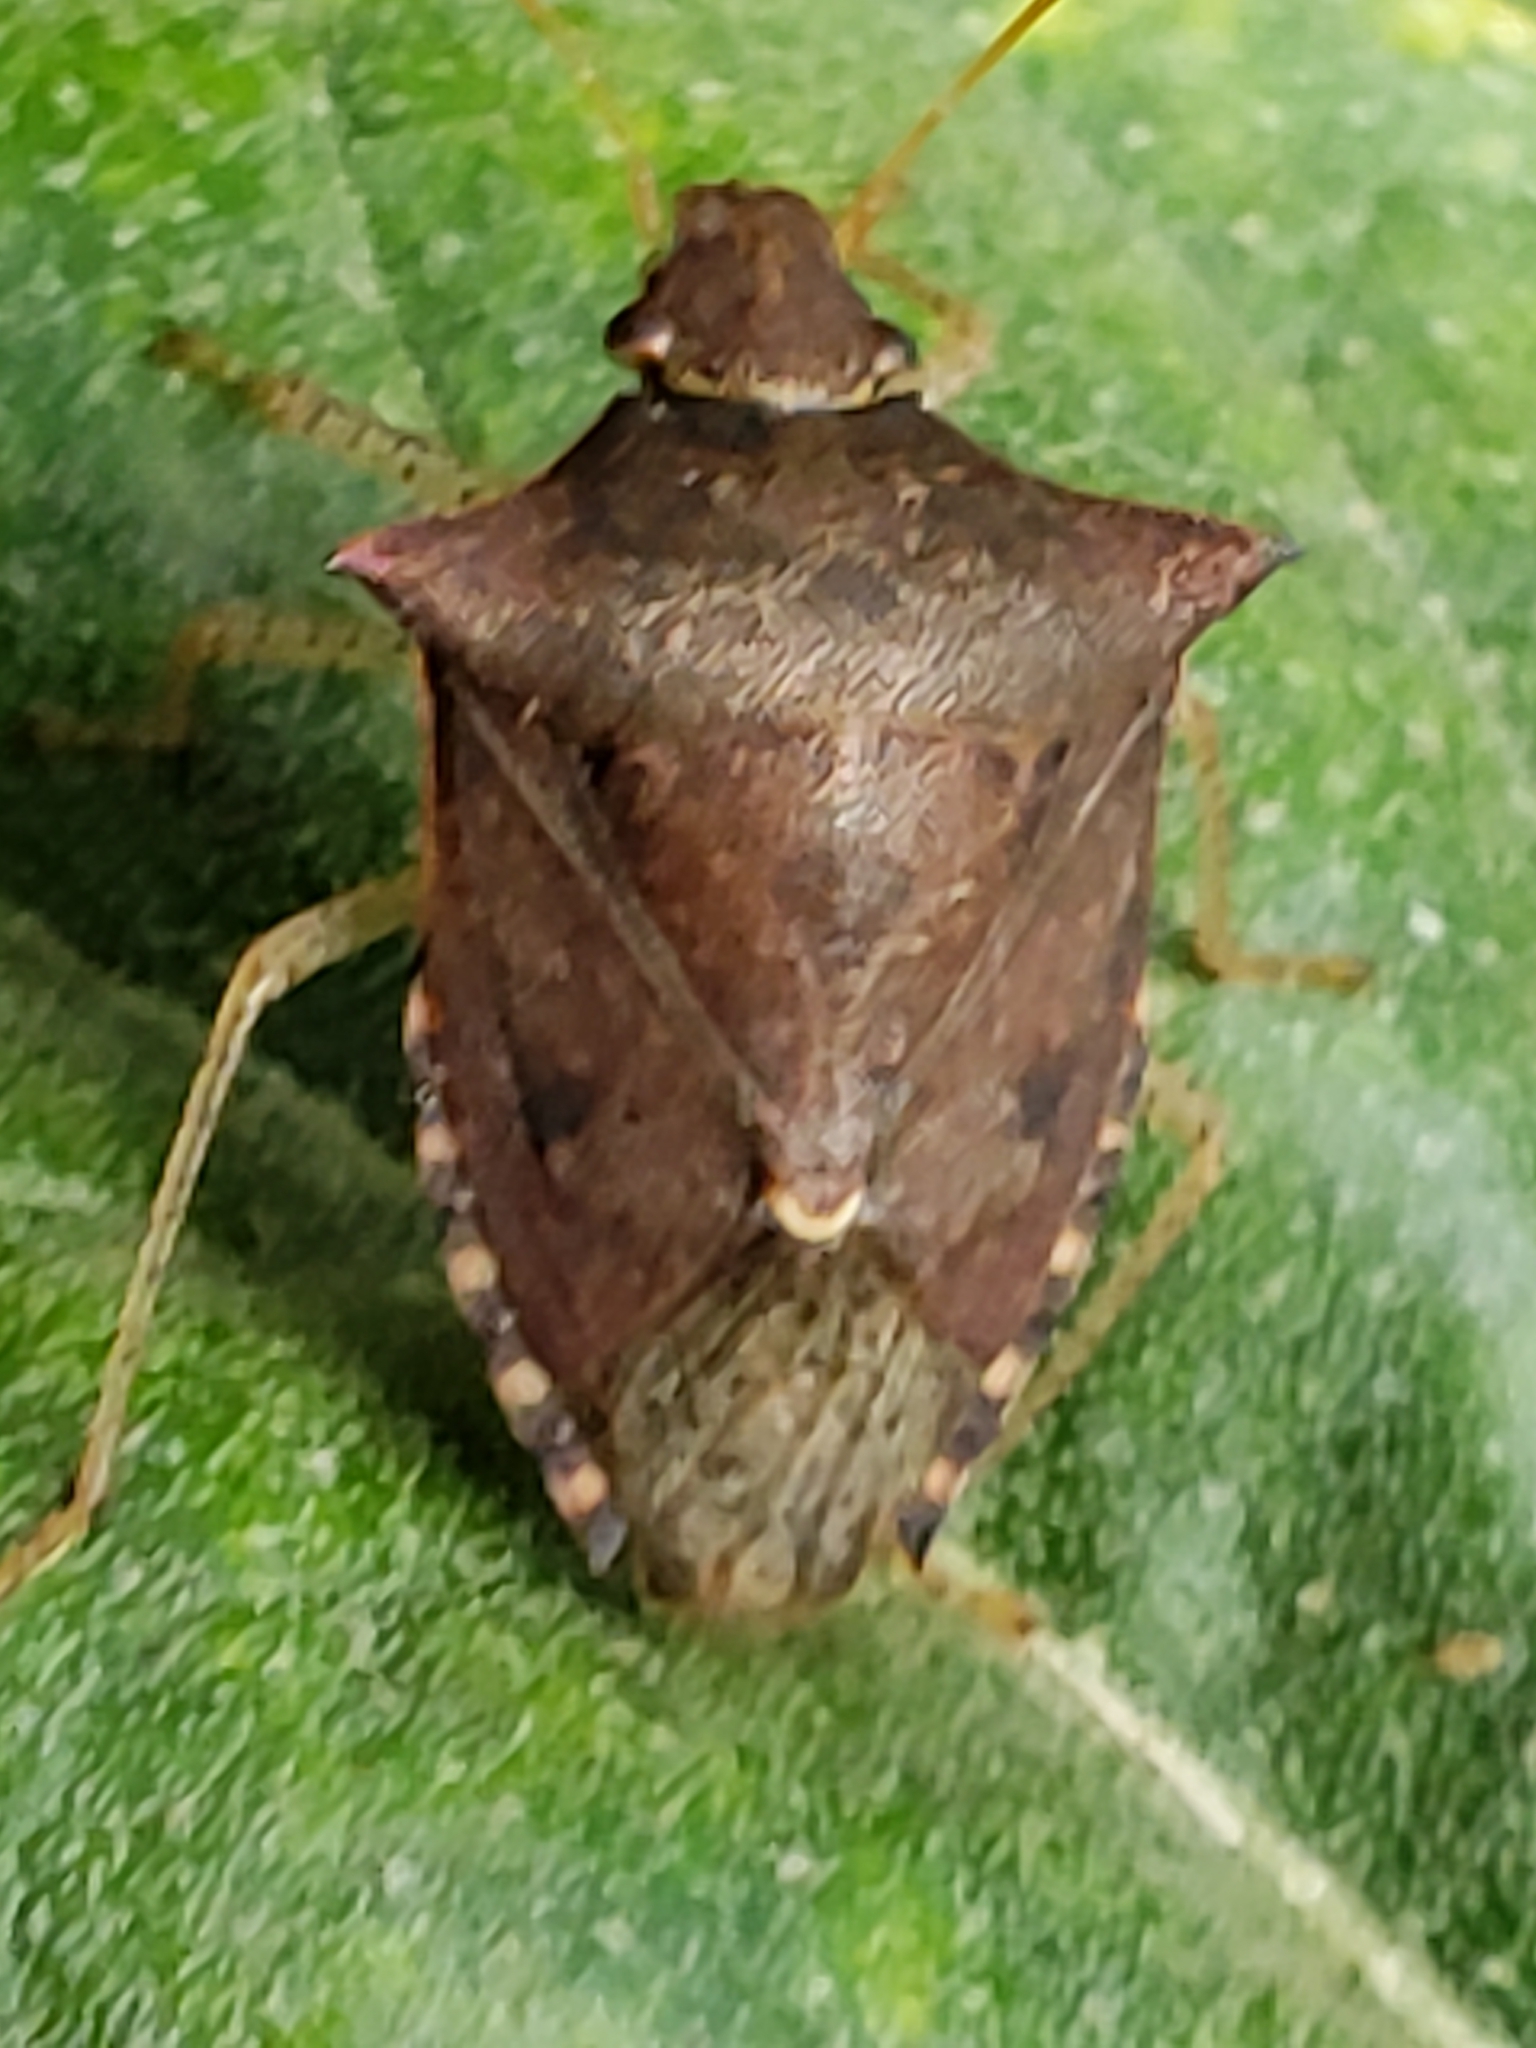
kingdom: Animalia
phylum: Arthropoda
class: Insecta
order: Hemiptera
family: Pentatomidae
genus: Euschistus
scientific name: Euschistus tristigmus
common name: Dusky stink bug
